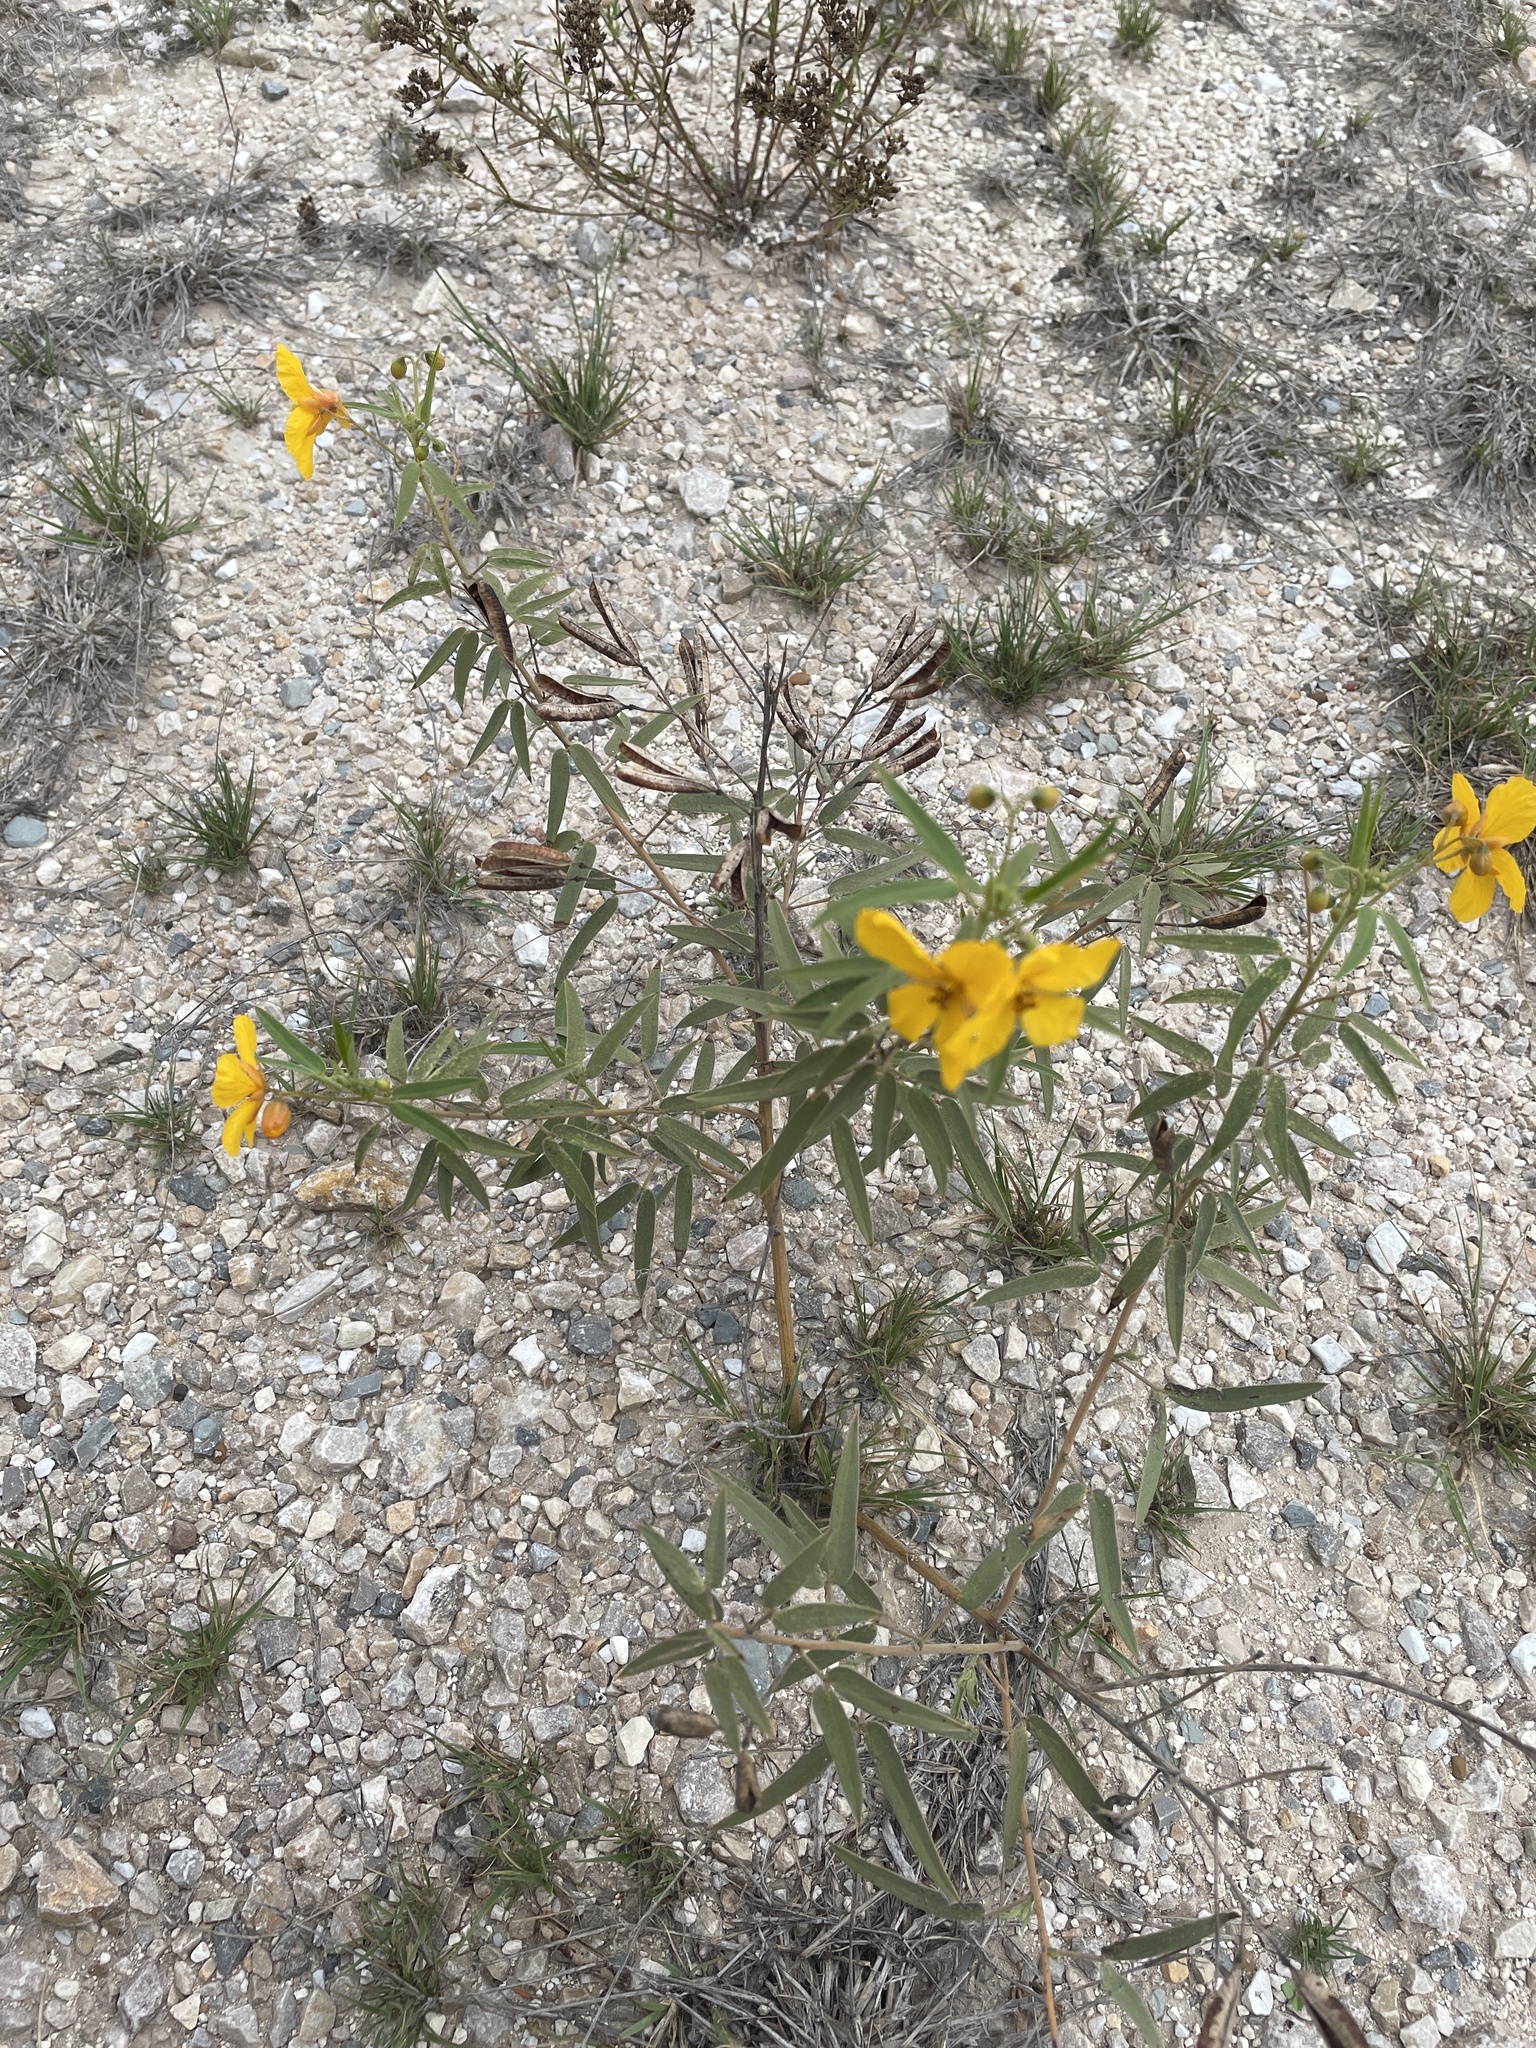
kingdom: Plantae
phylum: Tracheophyta
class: Magnoliopsida
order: Fabales
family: Fabaceae
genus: Senna
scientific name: Senna roemeriana
